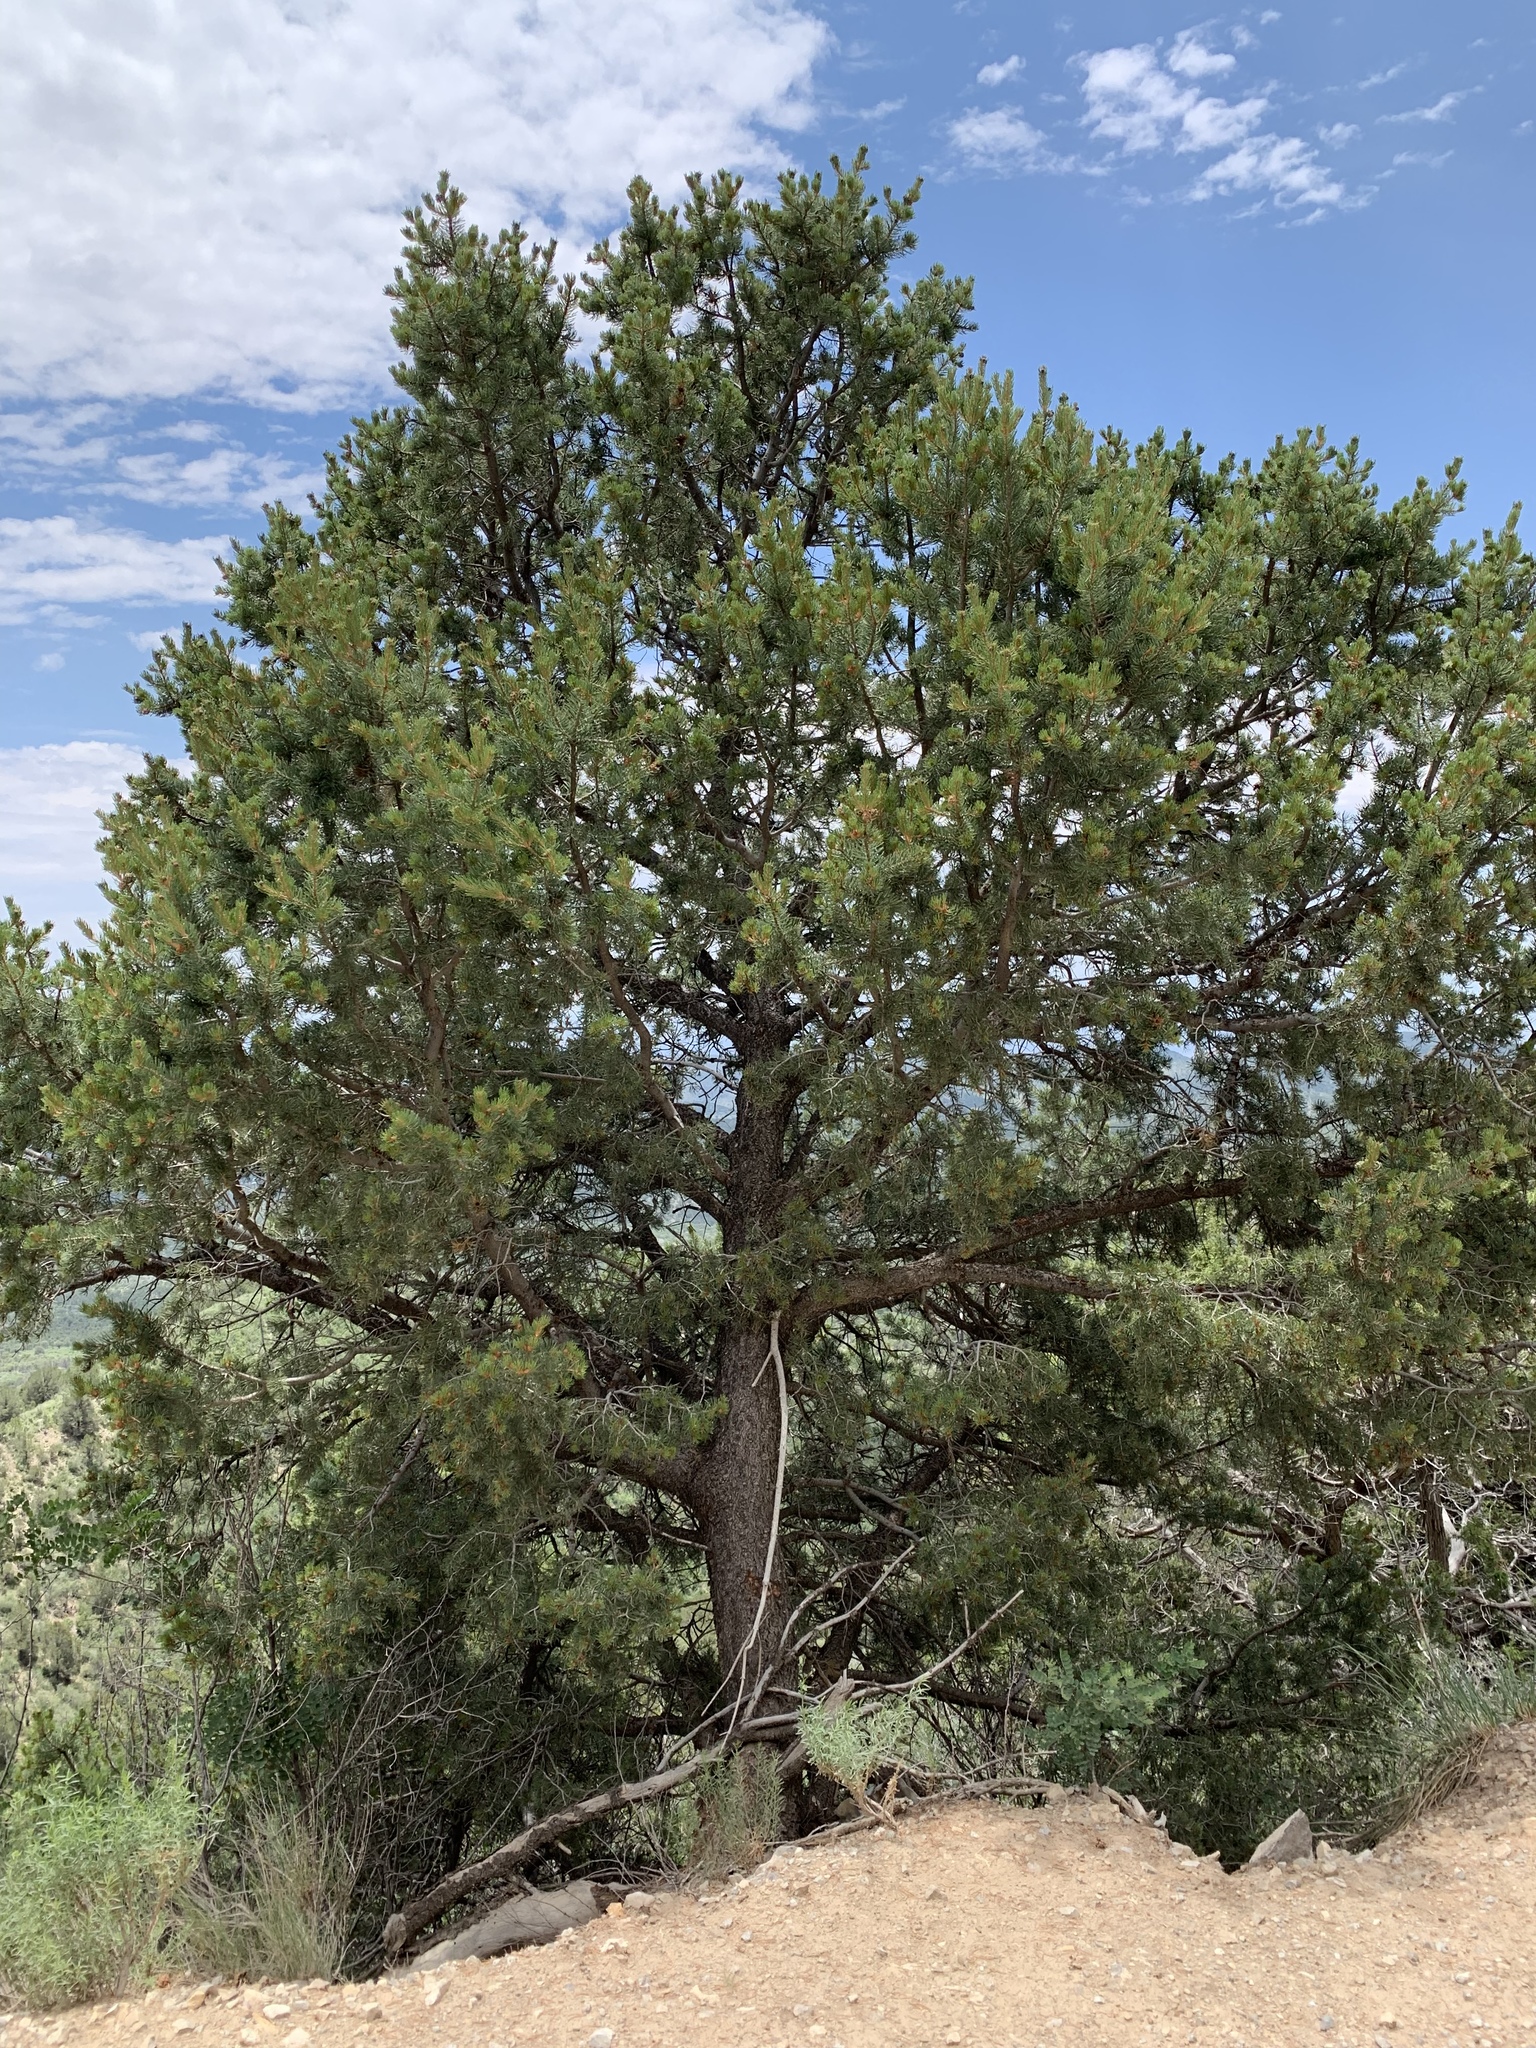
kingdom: Plantae
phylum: Tracheophyta
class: Pinopsida
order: Pinales
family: Pinaceae
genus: Pinus
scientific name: Pinus edulis
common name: Colorado pinyon
